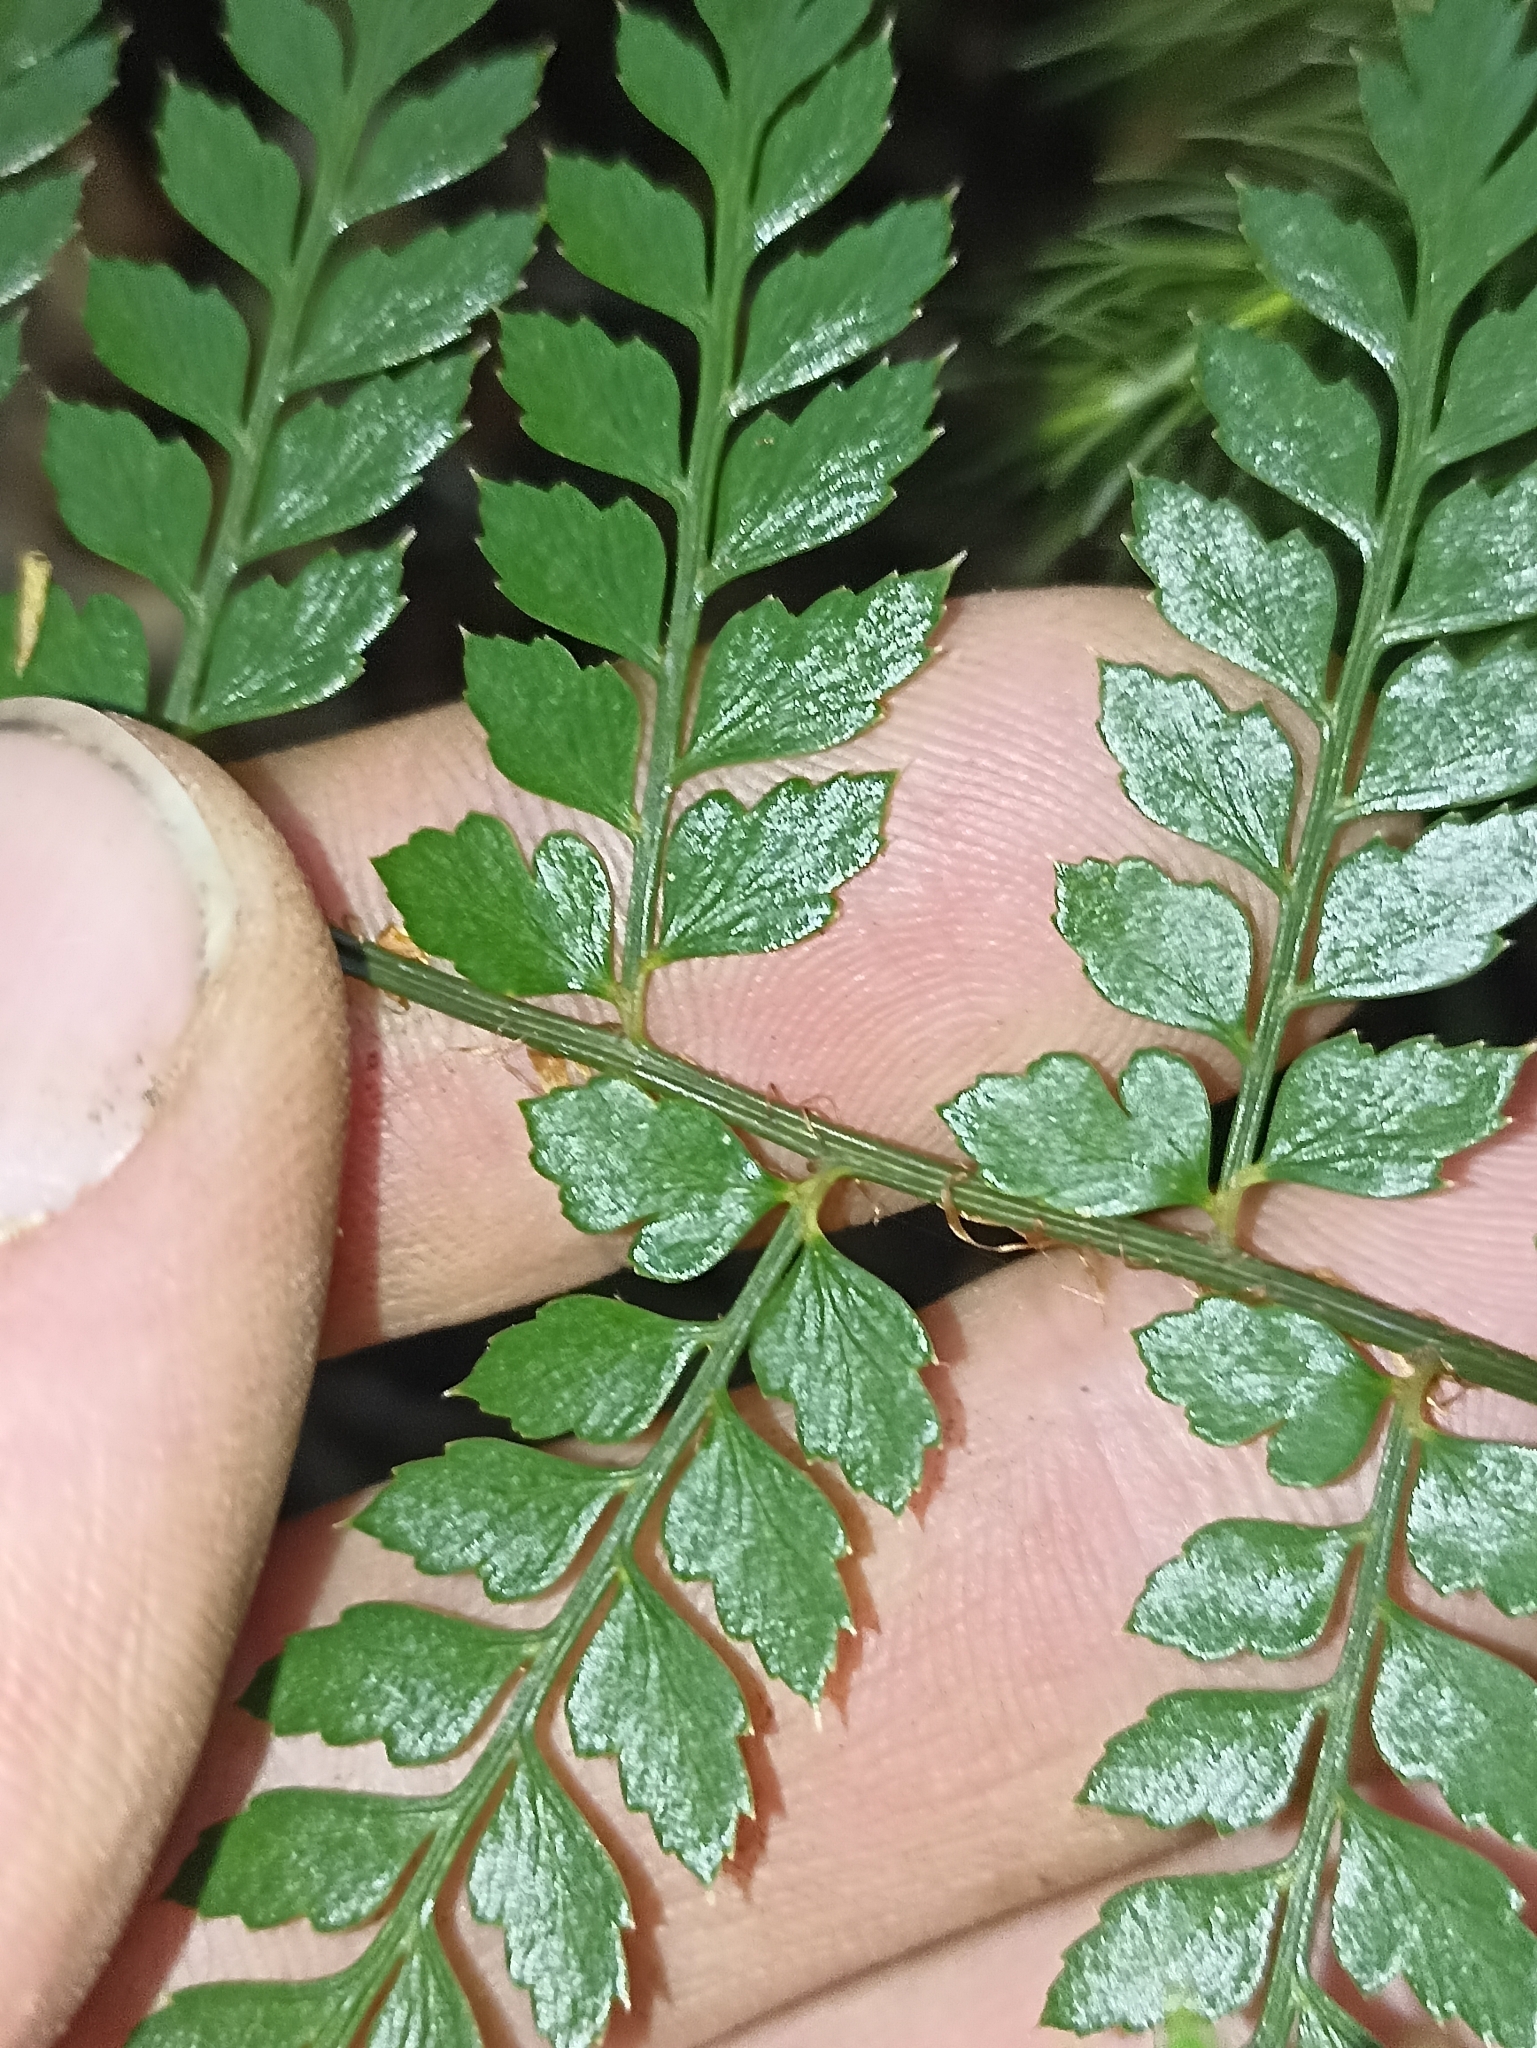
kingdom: Plantae
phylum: Tracheophyta
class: Polypodiopsida
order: Polypodiales
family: Dryopteridaceae
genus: Polystichum
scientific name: Polystichum vestitum
